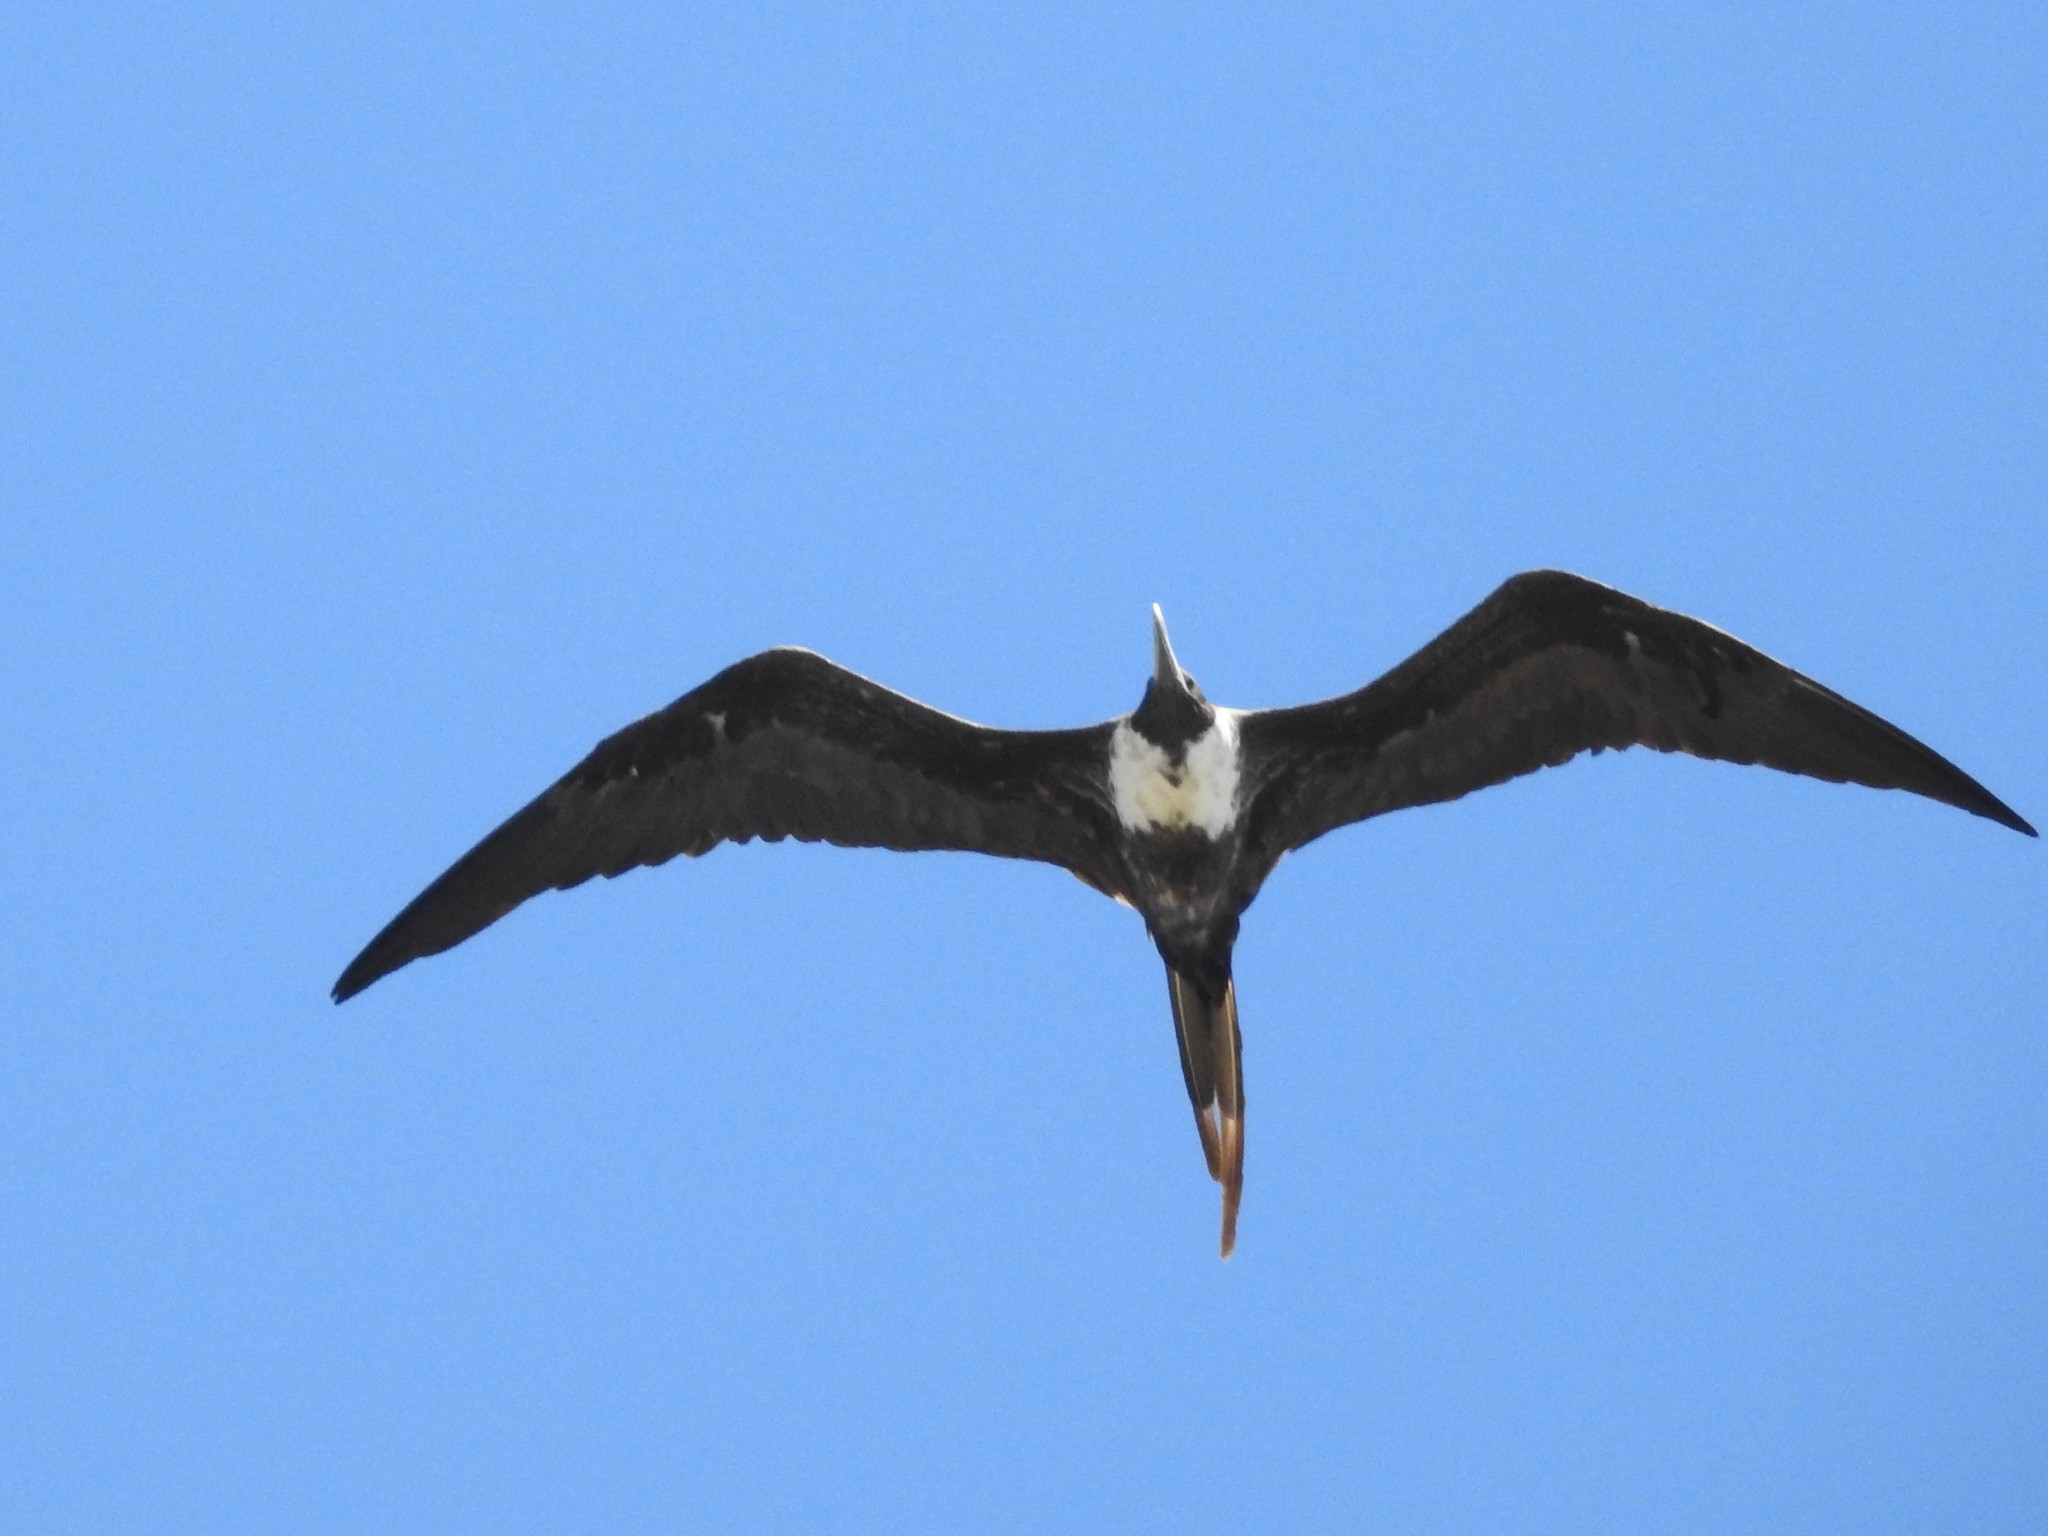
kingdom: Animalia
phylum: Chordata
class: Aves
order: Suliformes
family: Fregatidae
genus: Fregata
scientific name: Fregata magnificens
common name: Magnificent frigatebird
